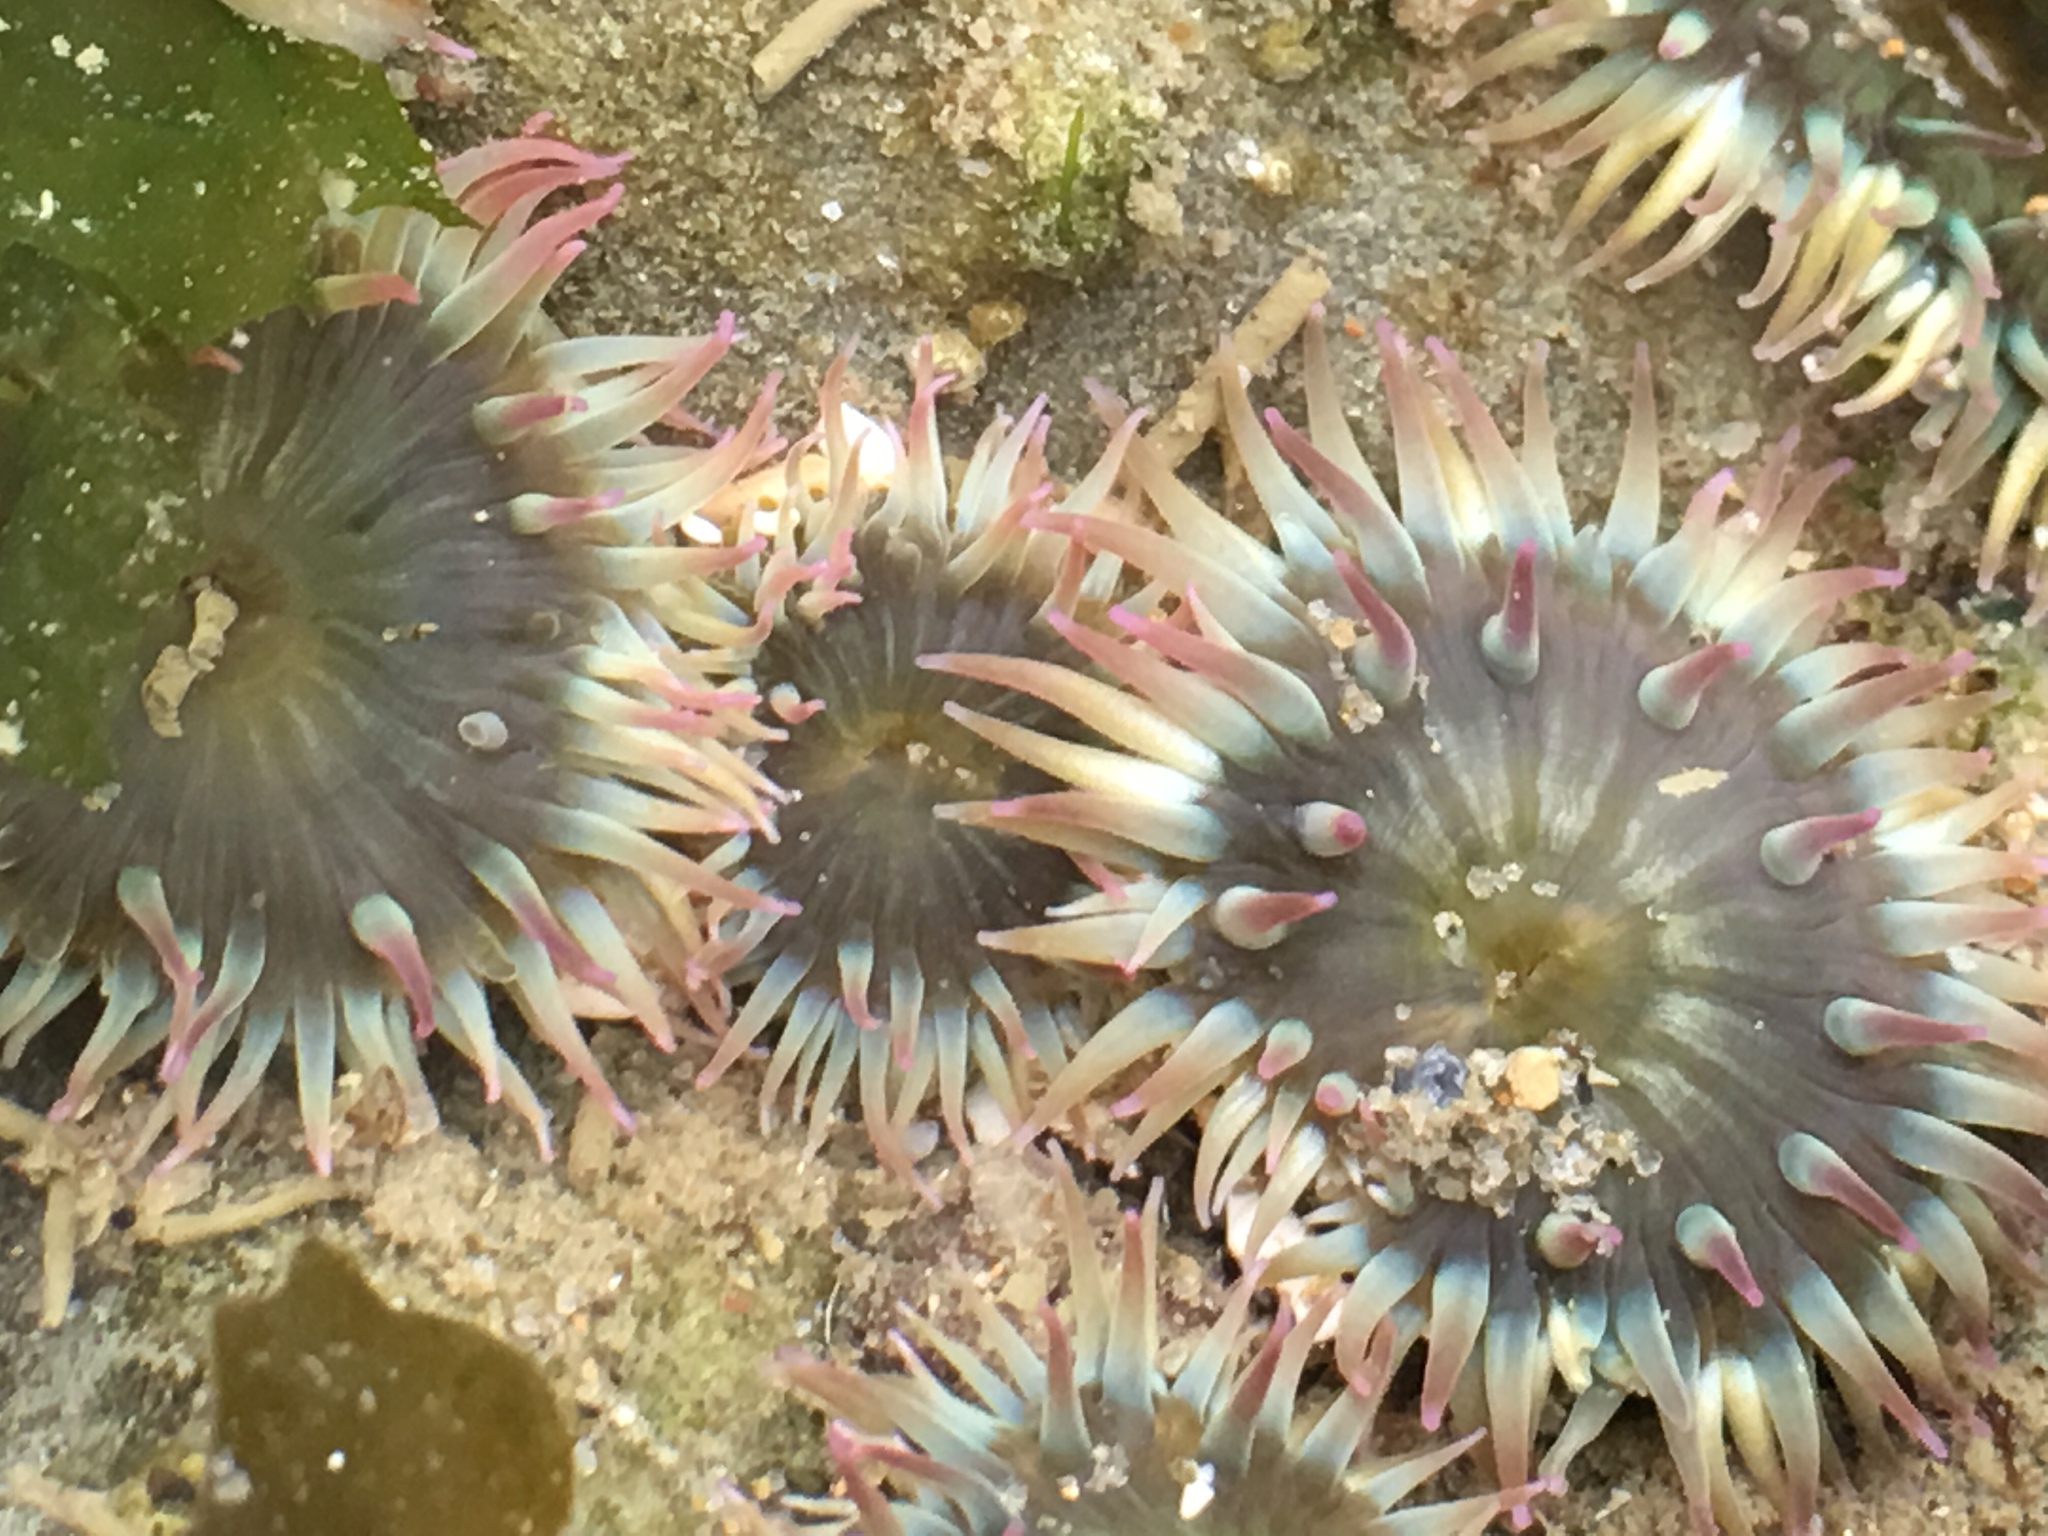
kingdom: Animalia
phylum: Cnidaria
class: Anthozoa
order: Actiniaria
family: Actiniidae
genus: Anthopleura
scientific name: Anthopleura elegantissima
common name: Clonal anemone
